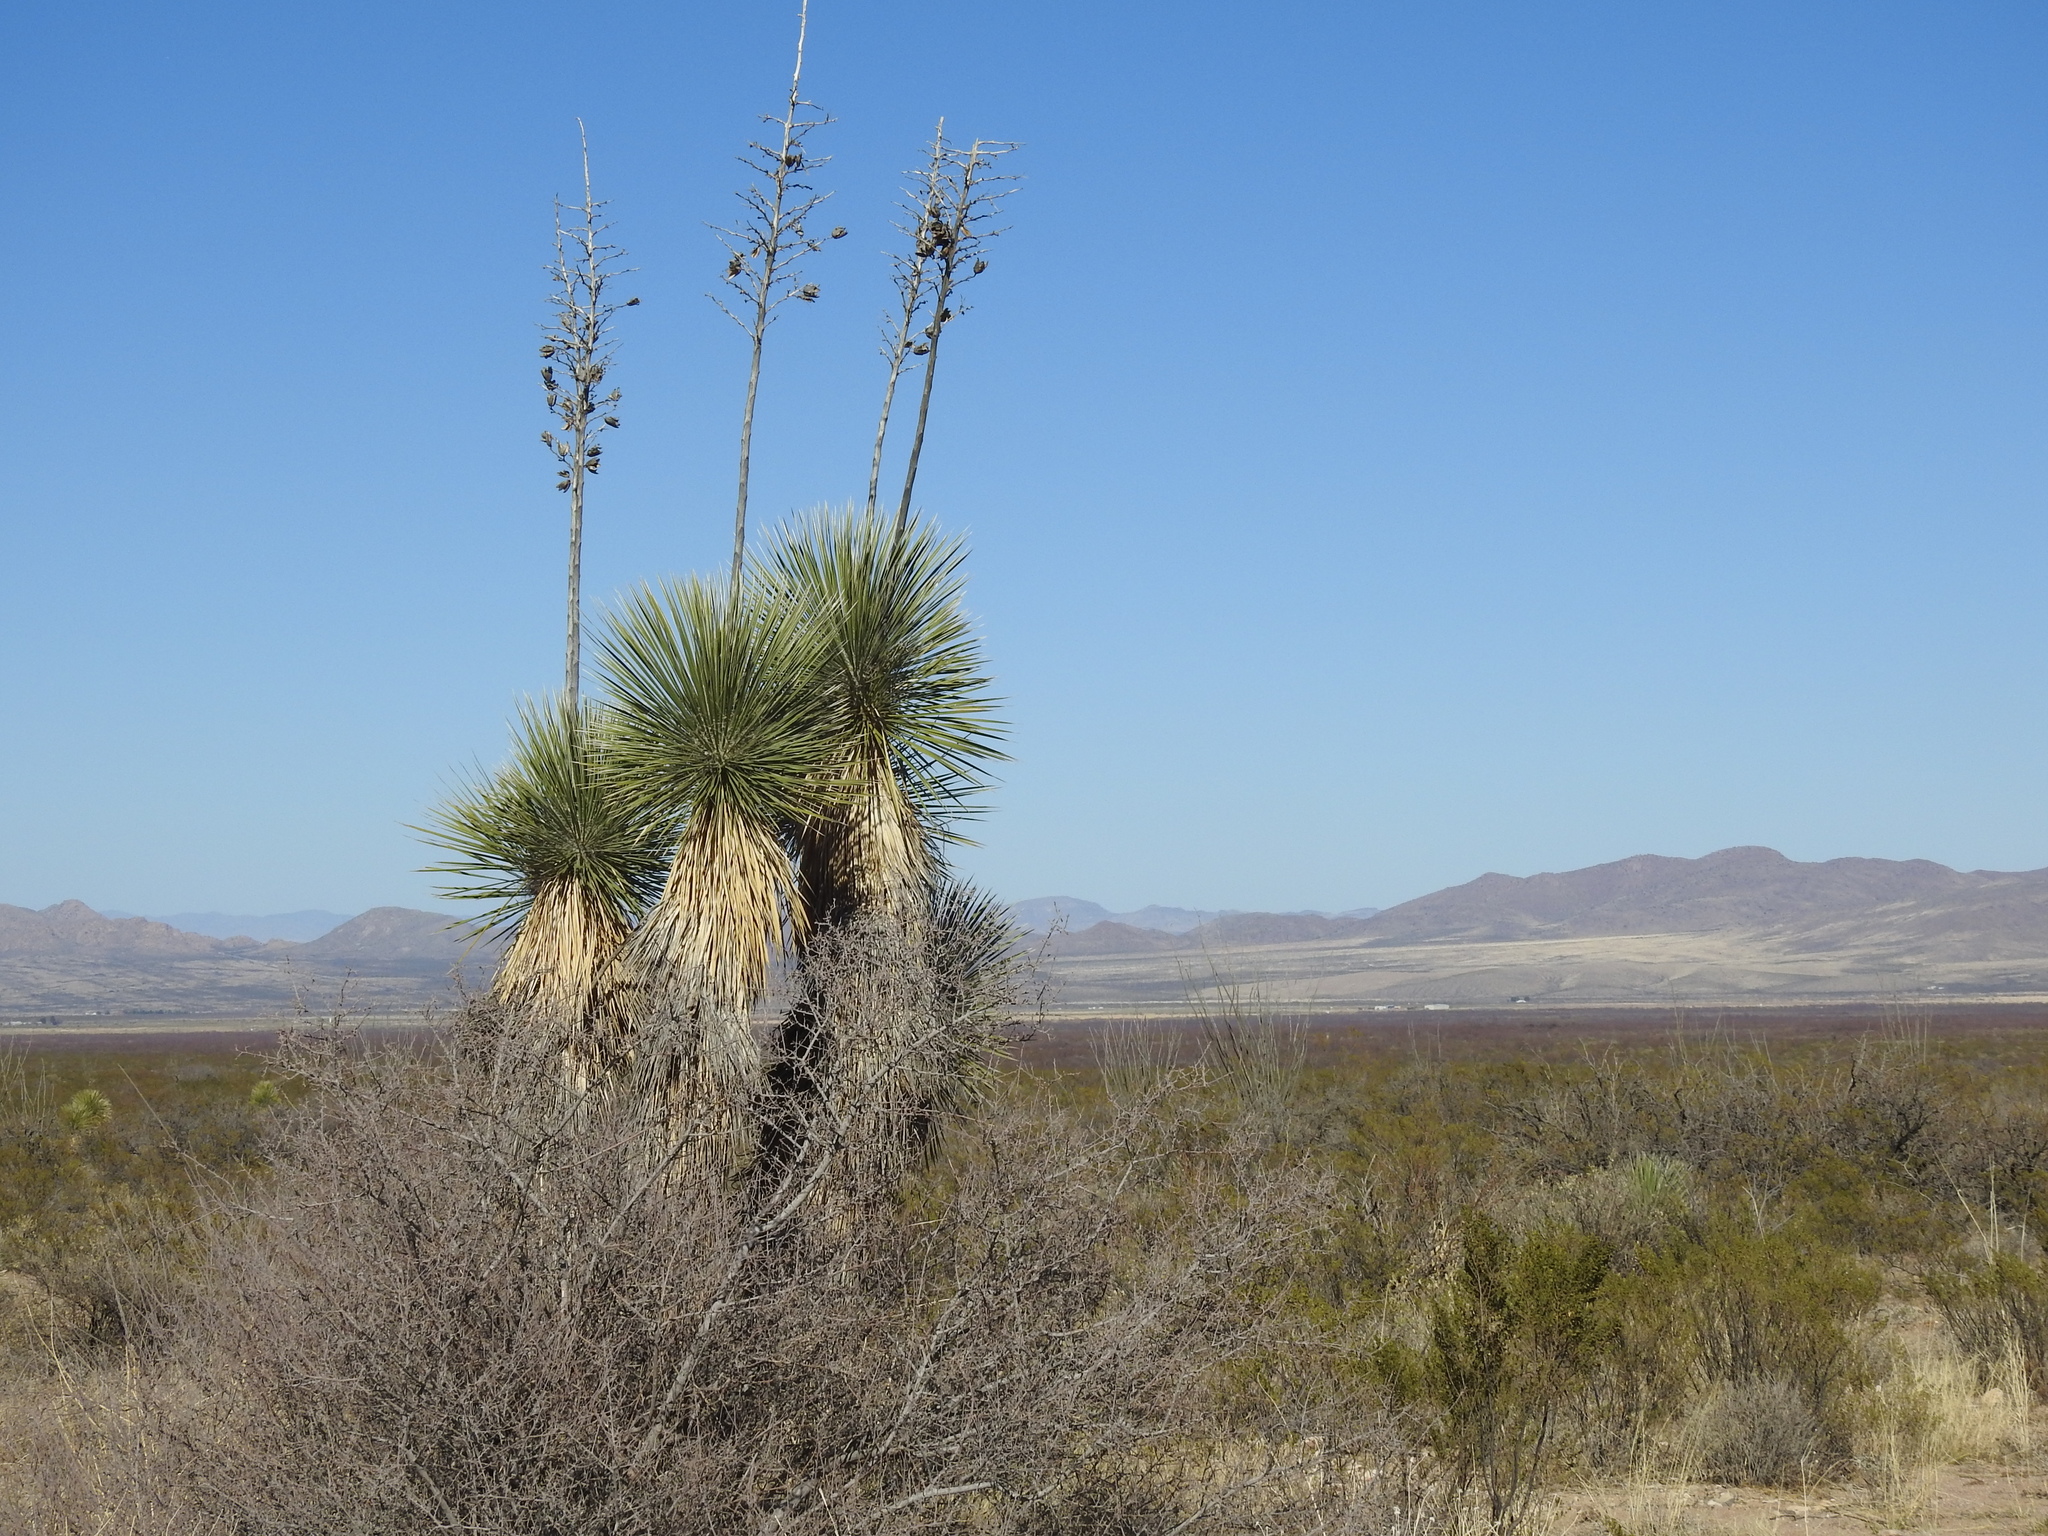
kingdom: Plantae
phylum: Tracheophyta
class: Liliopsida
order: Asparagales
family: Asparagaceae
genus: Yucca
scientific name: Yucca elata
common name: Palmella
